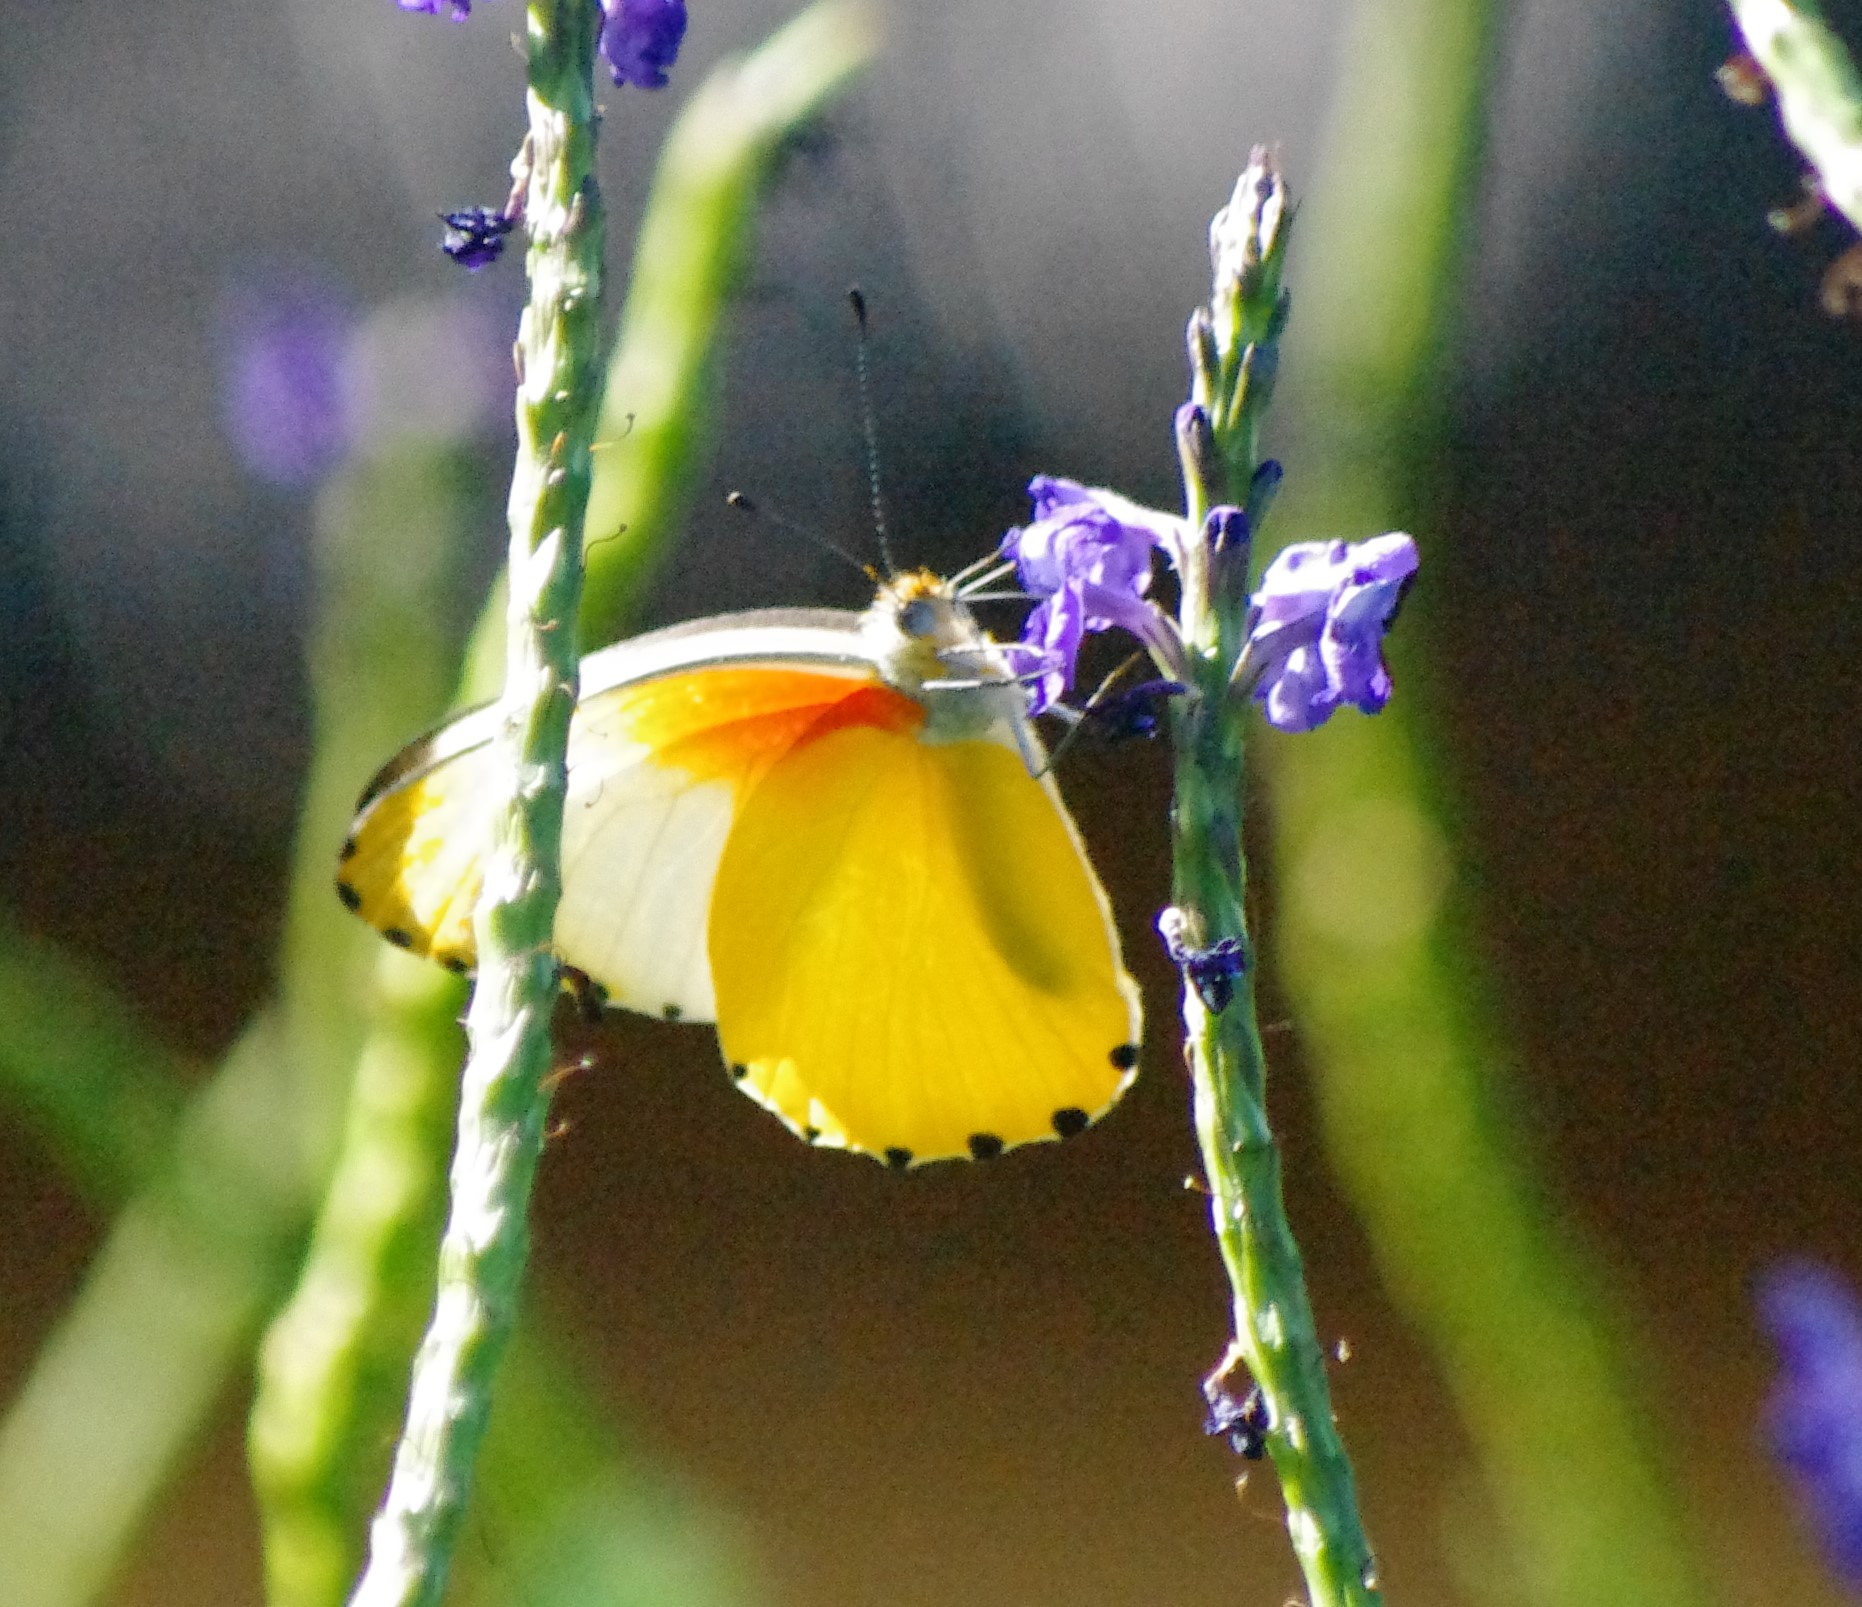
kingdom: Animalia
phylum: Arthropoda
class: Insecta
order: Lepidoptera
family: Pieridae
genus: Mylothris
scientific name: Mylothris agathina
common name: Eastern dotted border
